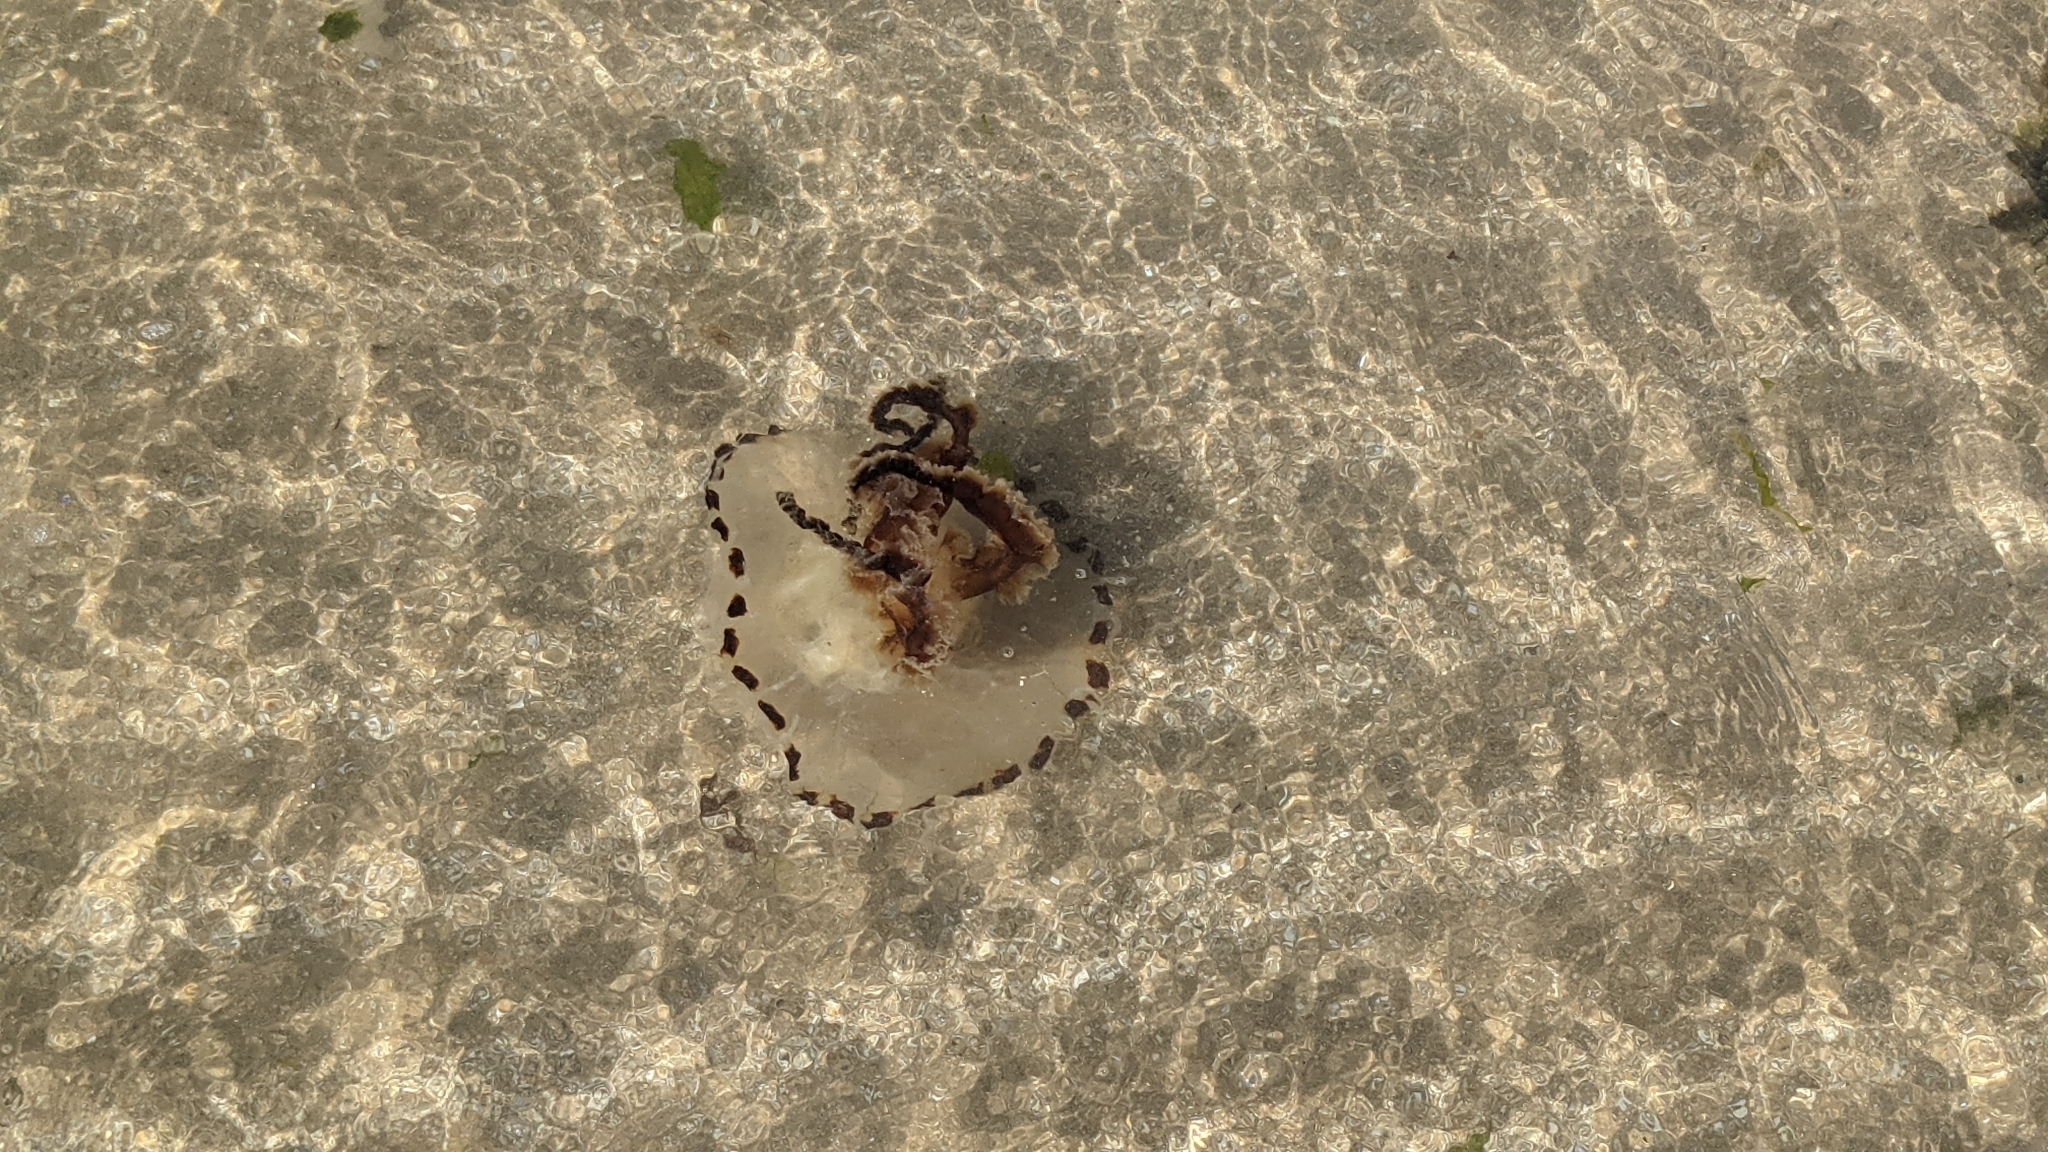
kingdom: Animalia
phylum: Cnidaria
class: Scyphozoa
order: Semaeostomeae
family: Pelagiidae
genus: Chrysaora
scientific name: Chrysaora hysoscella
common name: Compass jellyfish
